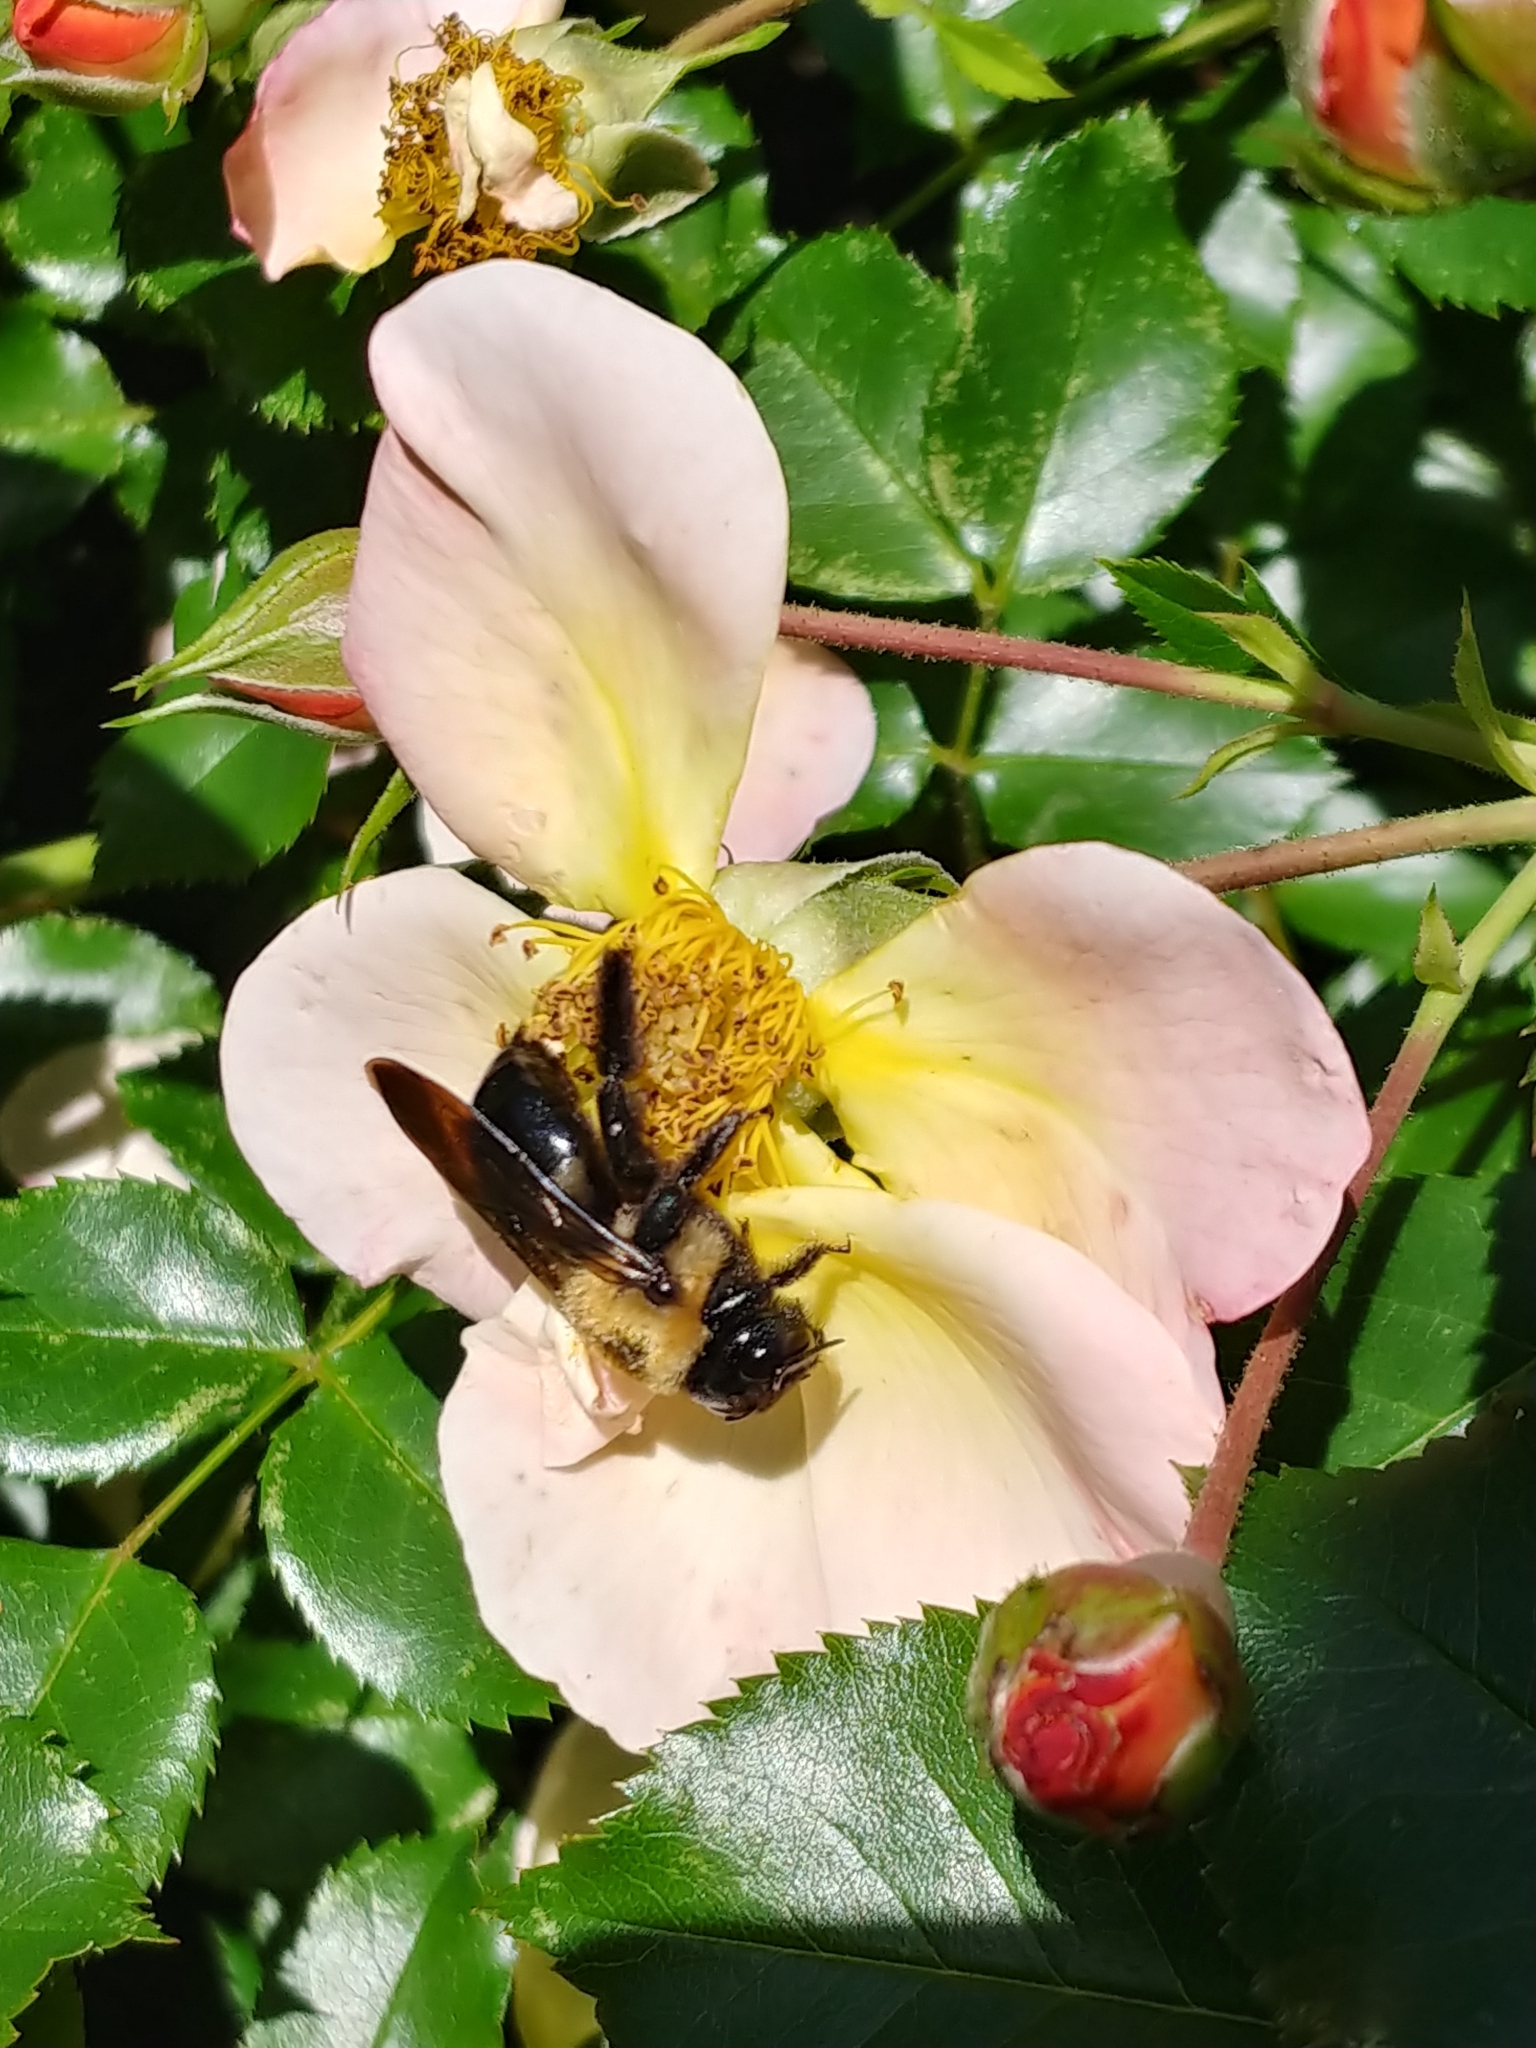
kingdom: Animalia
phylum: Arthropoda
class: Insecta
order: Hymenoptera
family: Apidae
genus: Xylocopa
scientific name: Xylocopa virginica
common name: Carpenter bee
